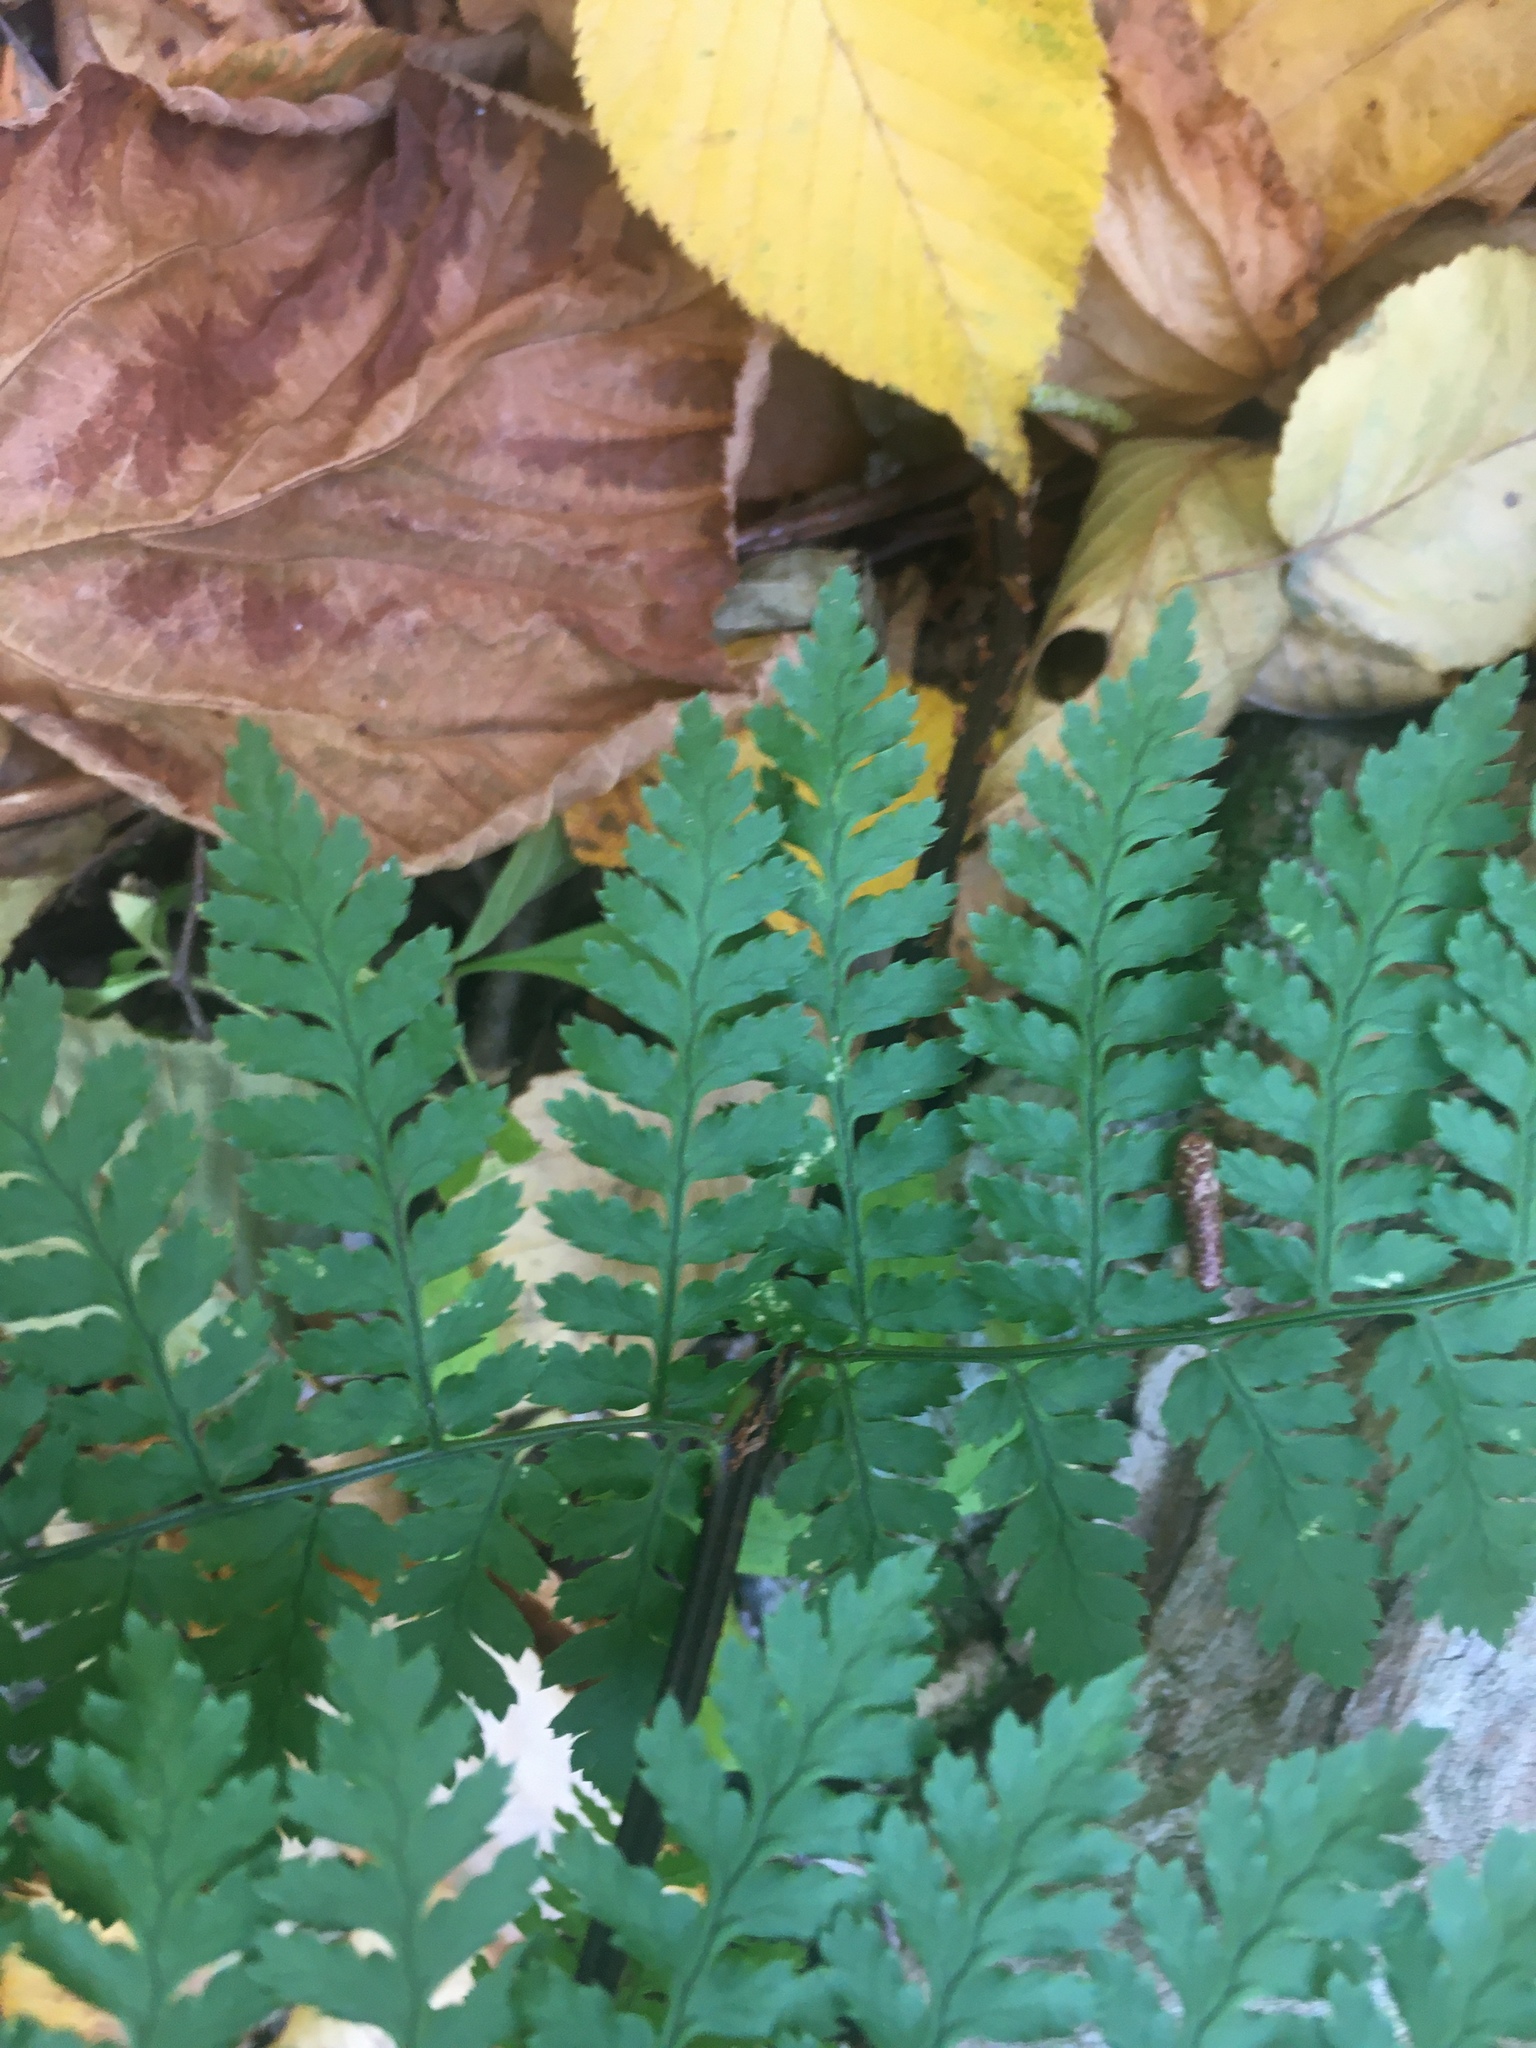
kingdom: Plantae
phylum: Tracheophyta
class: Polypodiopsida
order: Polypodiales
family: Dryopteridaceae
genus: Dryopteris
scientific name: Dryopteris intermedia
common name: Evergreen wood fern
